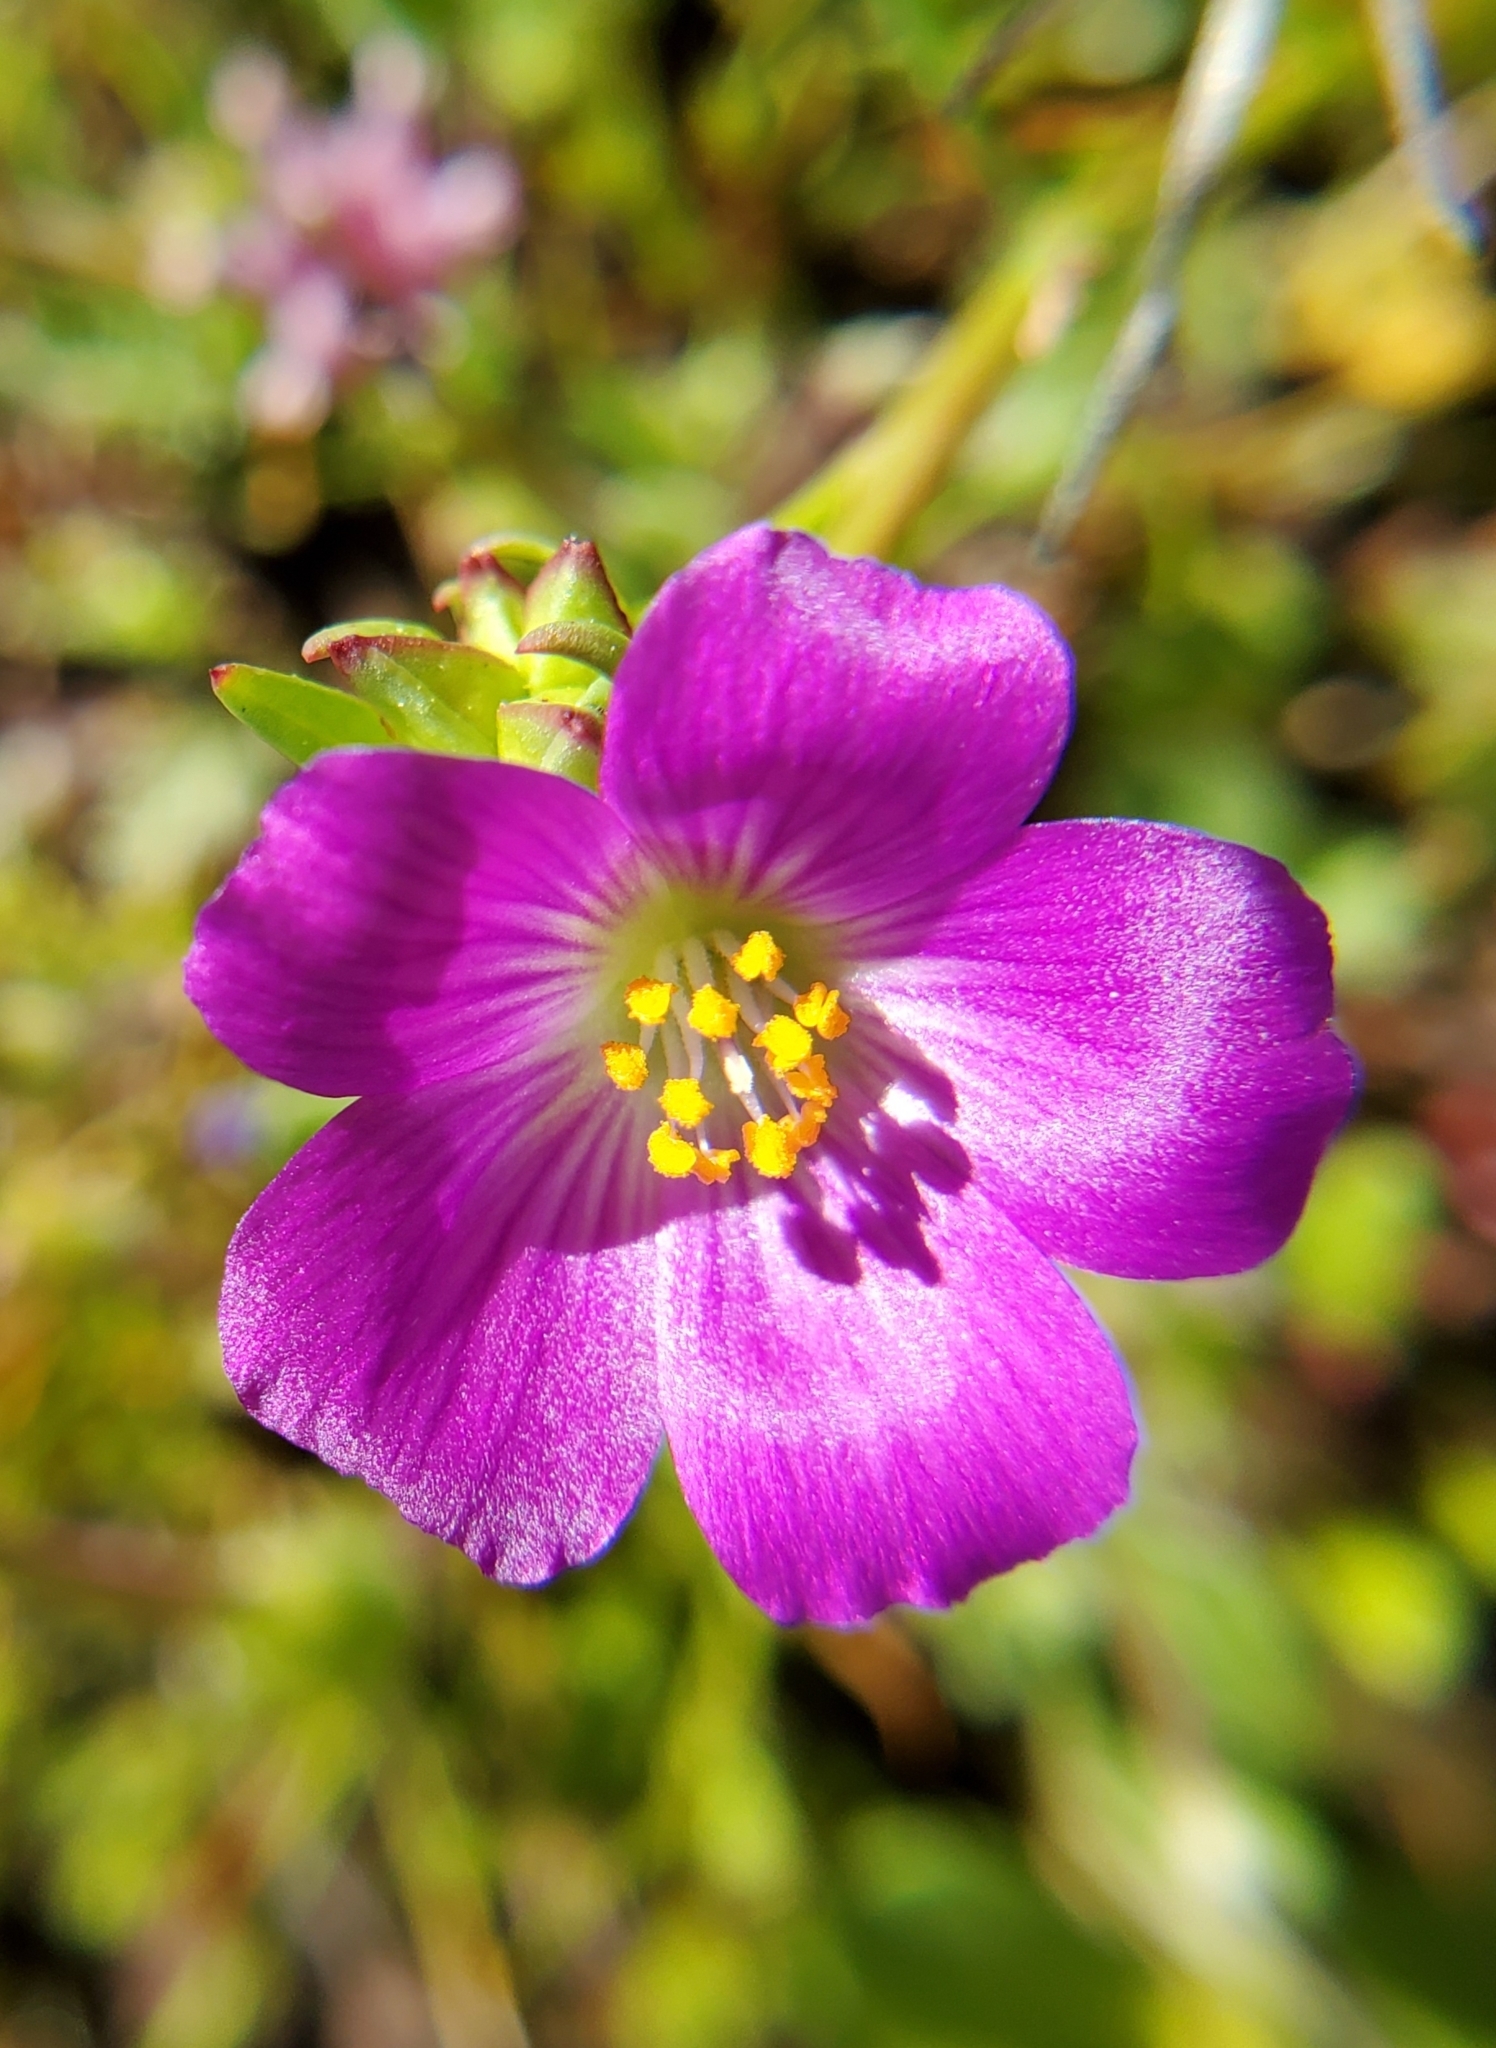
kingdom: Plantae
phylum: Tracheophyta
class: Magnoliopsida
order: Caryophyllales
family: Montiaceae
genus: Calandrinia
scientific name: Calandrinia menziesii
